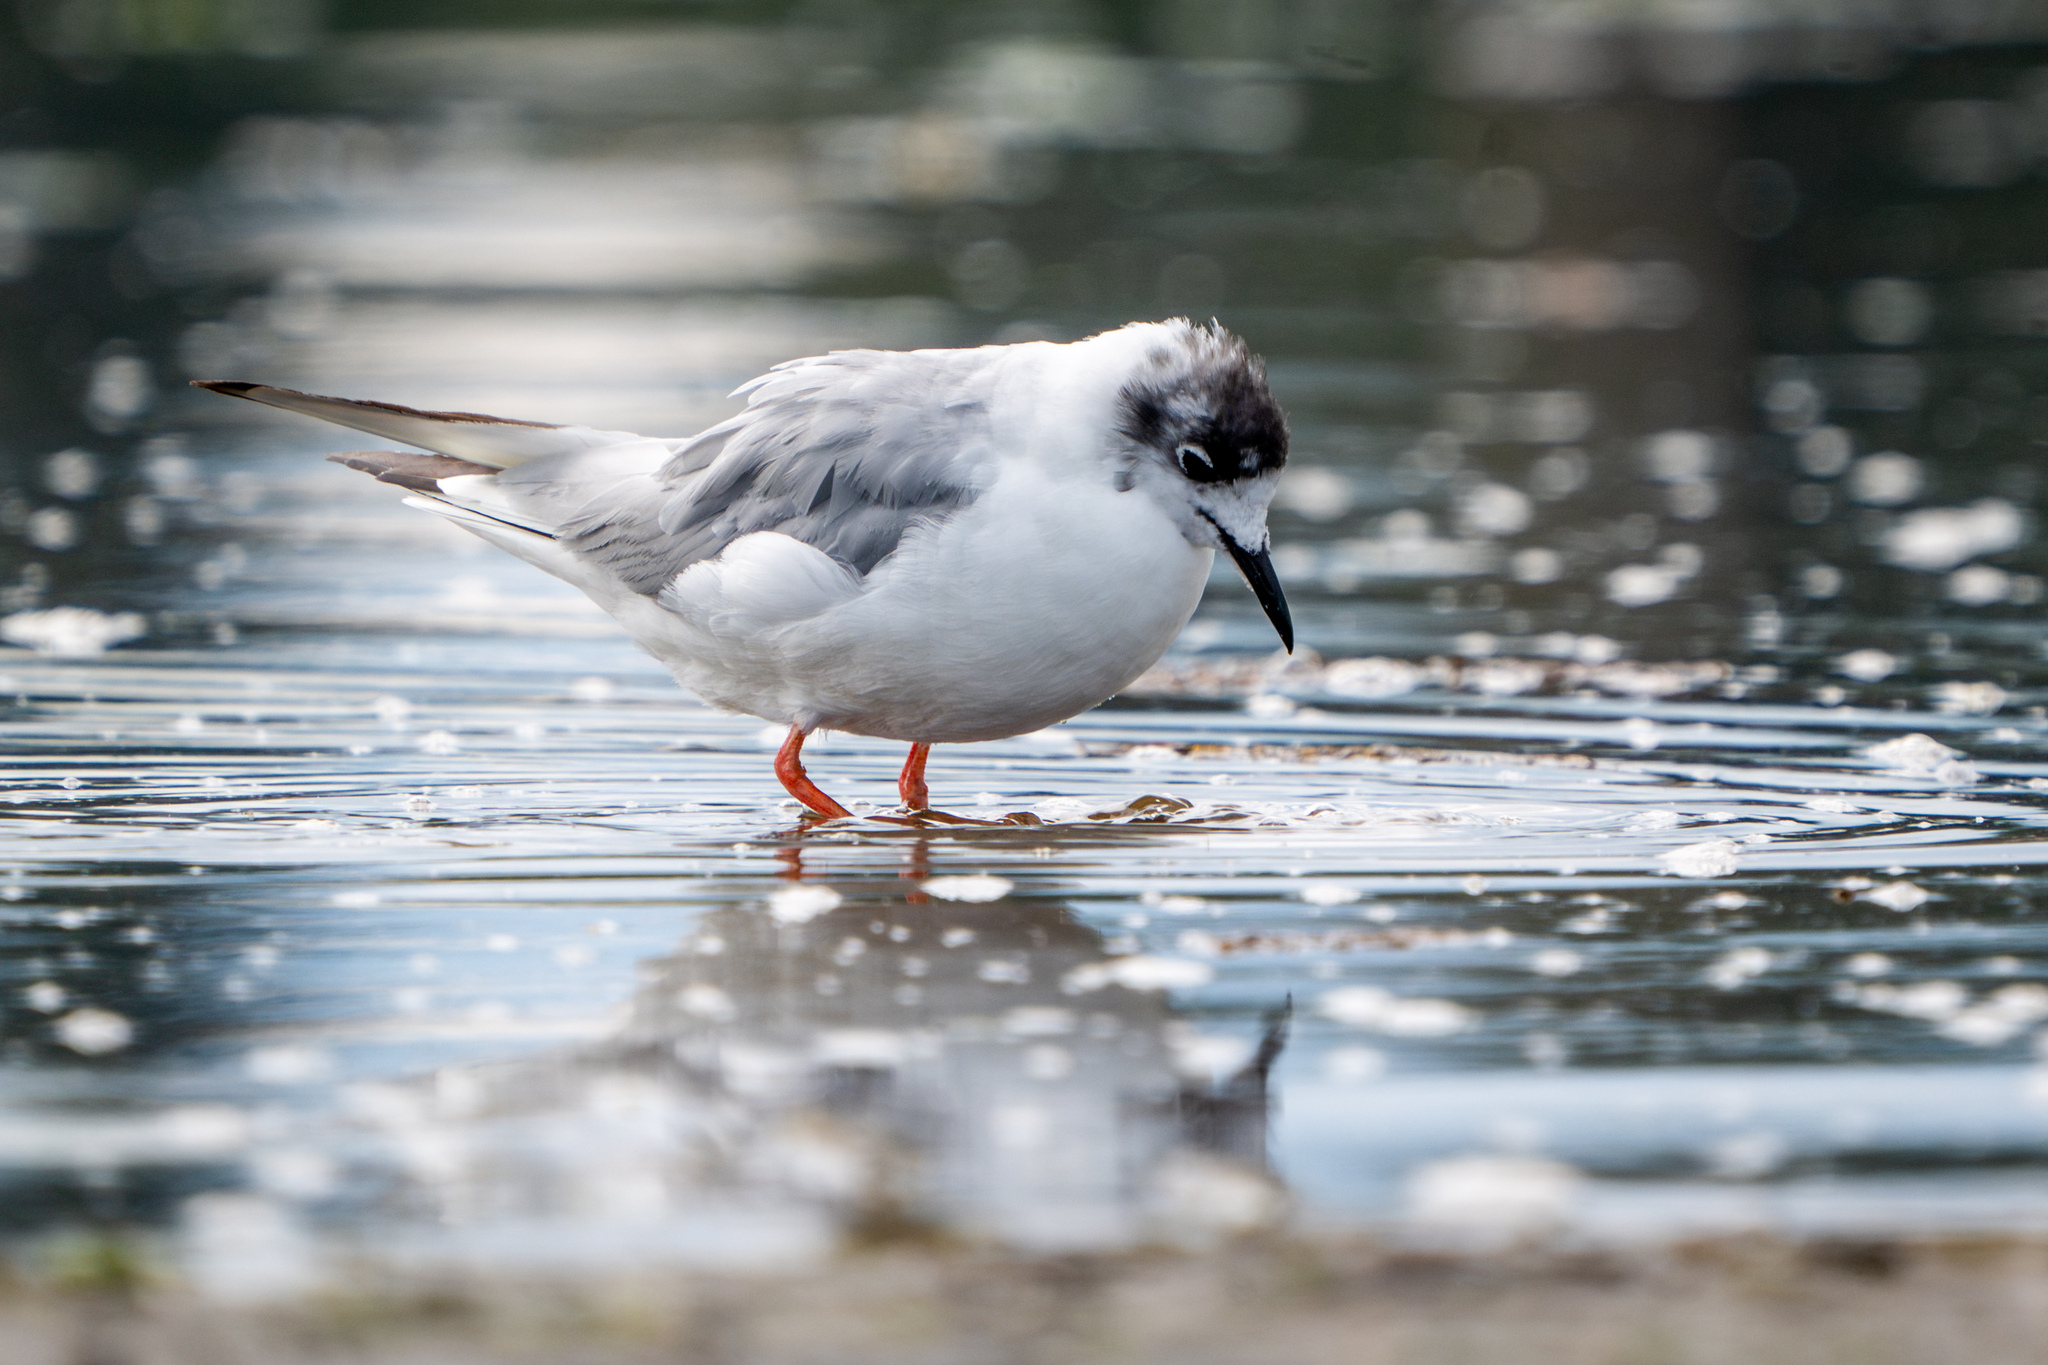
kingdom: Animalia
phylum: Chordata
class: Aves
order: Charadriiformes
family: Laridae
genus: Chroicocephalus
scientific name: Chroicocephalus philadelphia
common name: Bonaparte's gull
